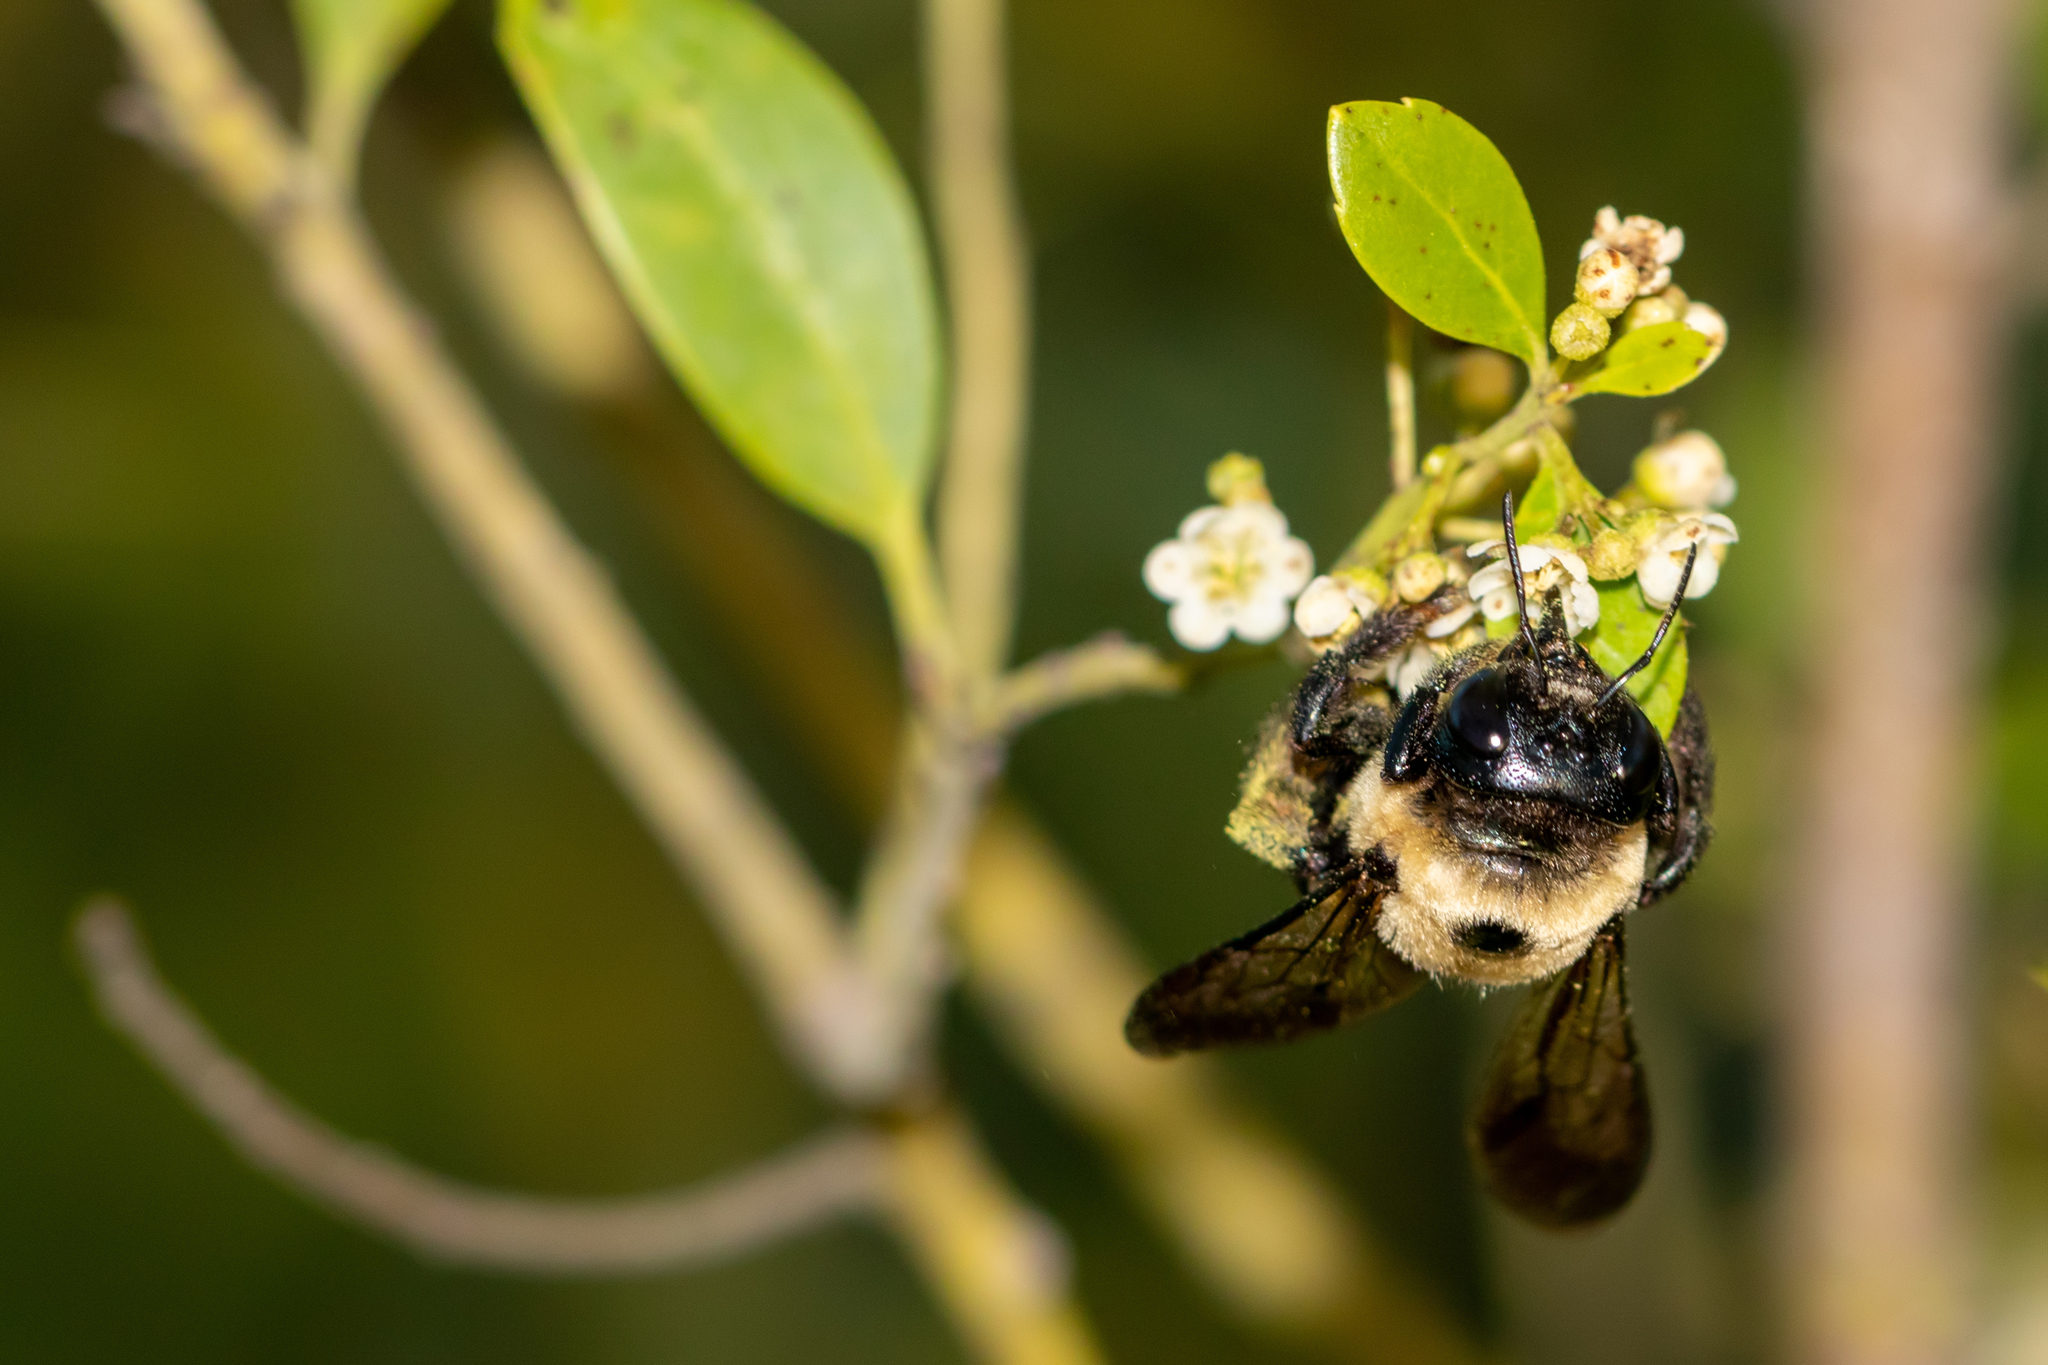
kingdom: Animalia
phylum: Arthropoda
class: Insecta
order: Hymenoptera
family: Apidae
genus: Xylocopa
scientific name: Xylocopa virginica
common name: Carpenter bee
